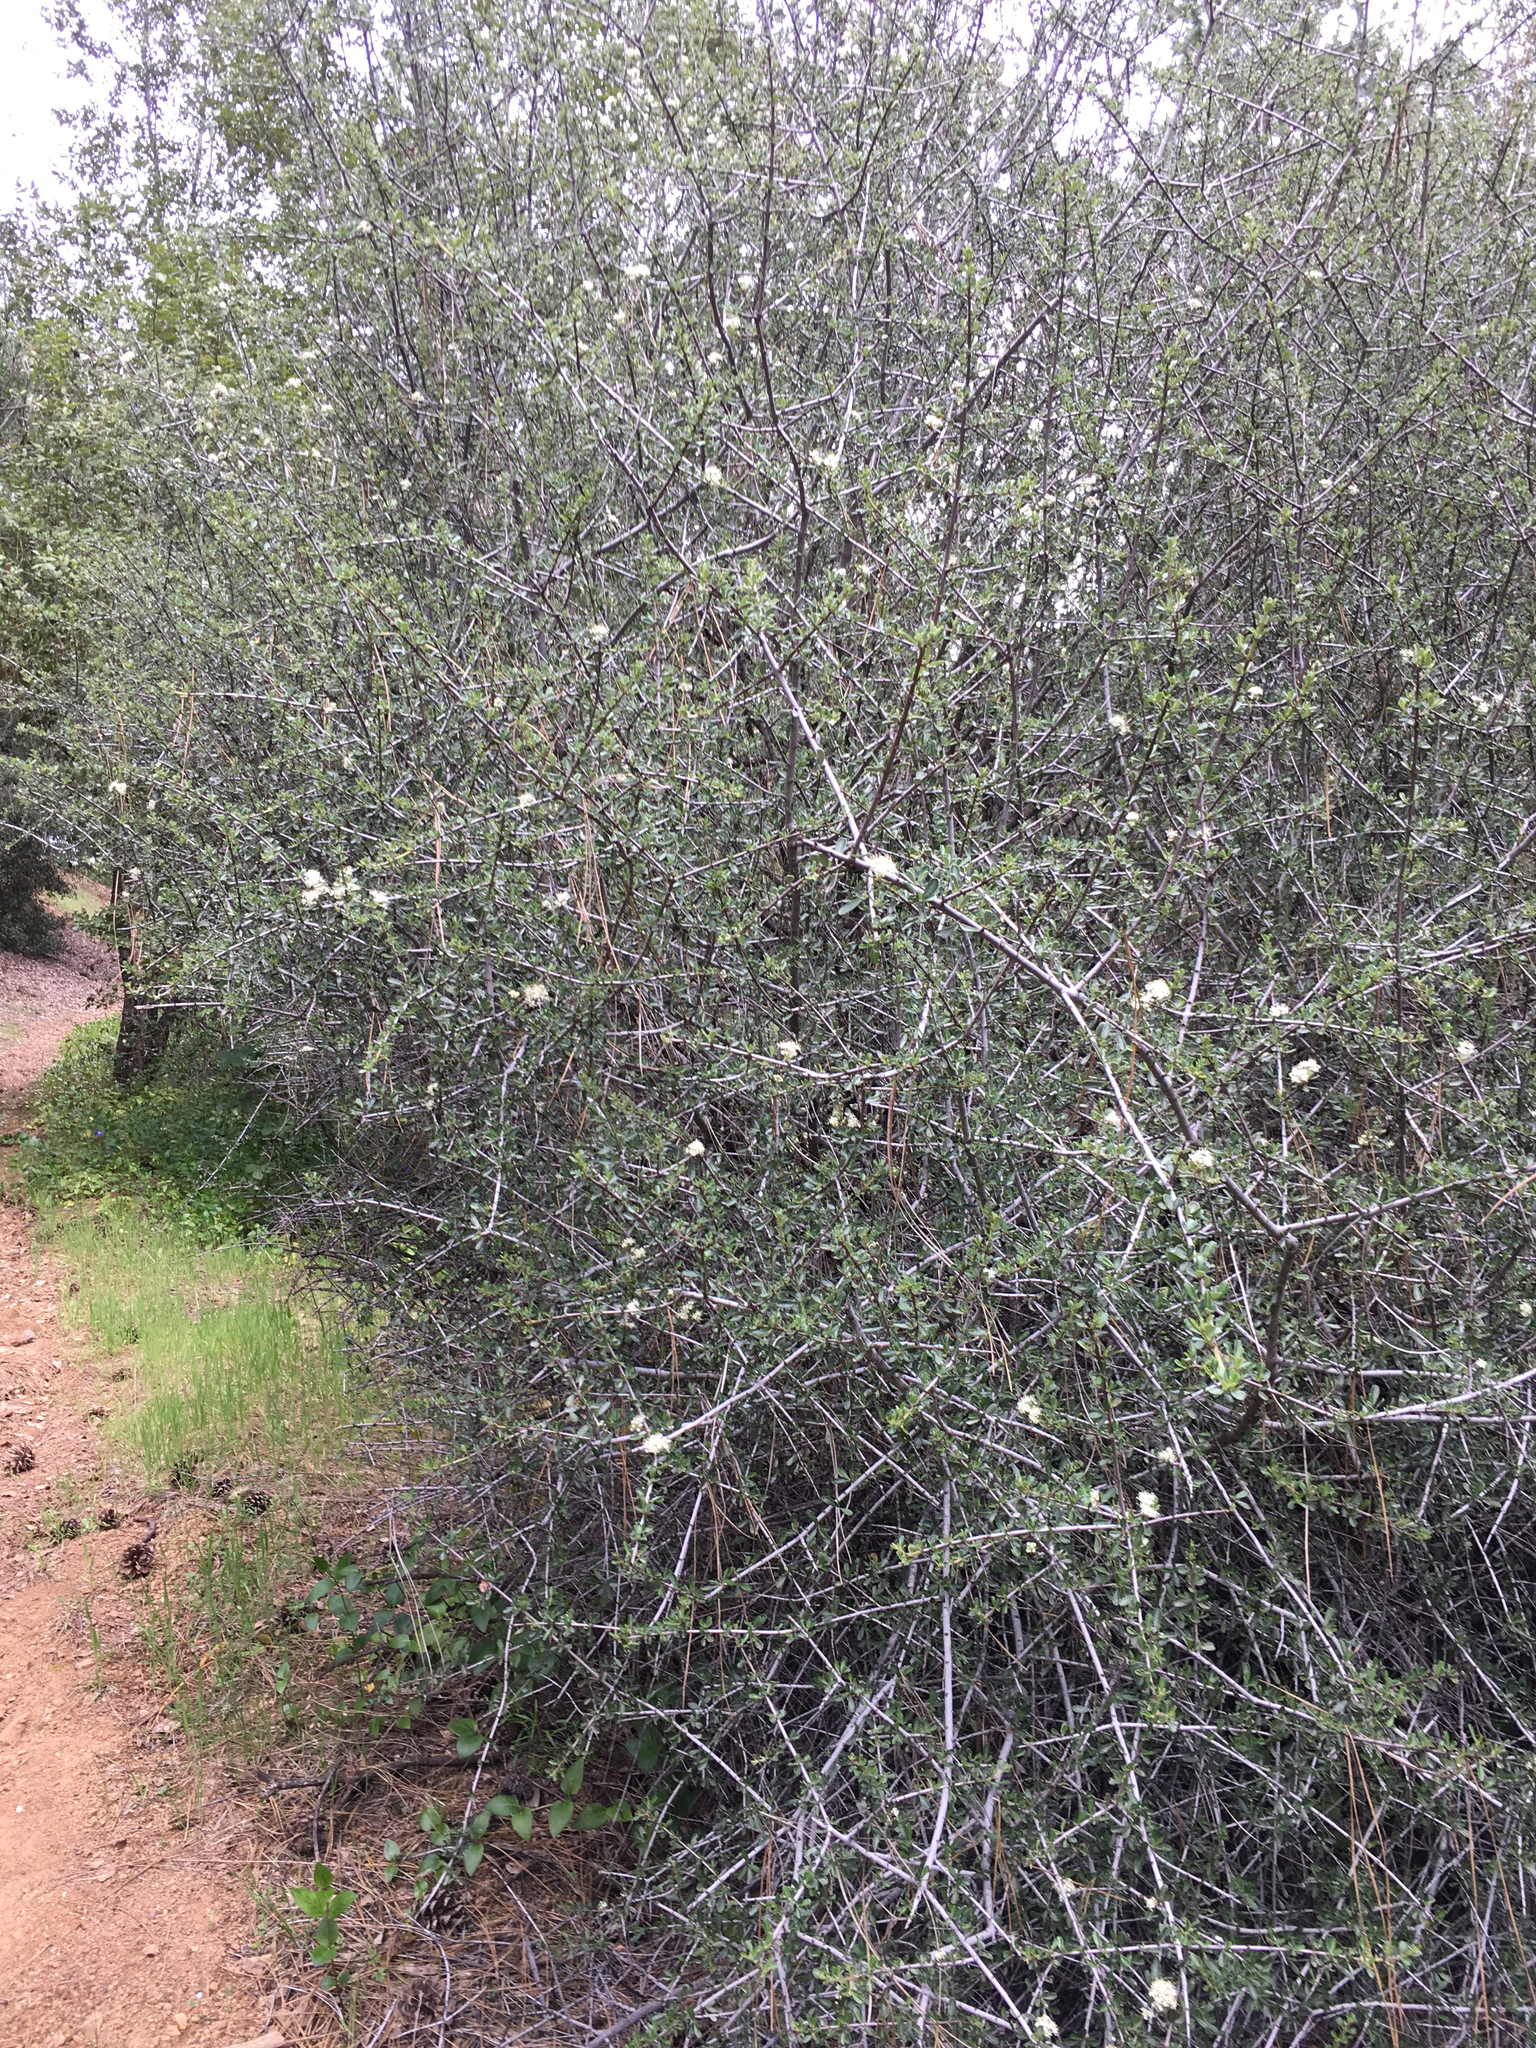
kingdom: Plantae
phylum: Tracheophyta
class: Magnoliopsida
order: Rosales
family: Rhamnaceae
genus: Ceanothus
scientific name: Ceanothus cuneatus
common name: Cuneate ceanothus
